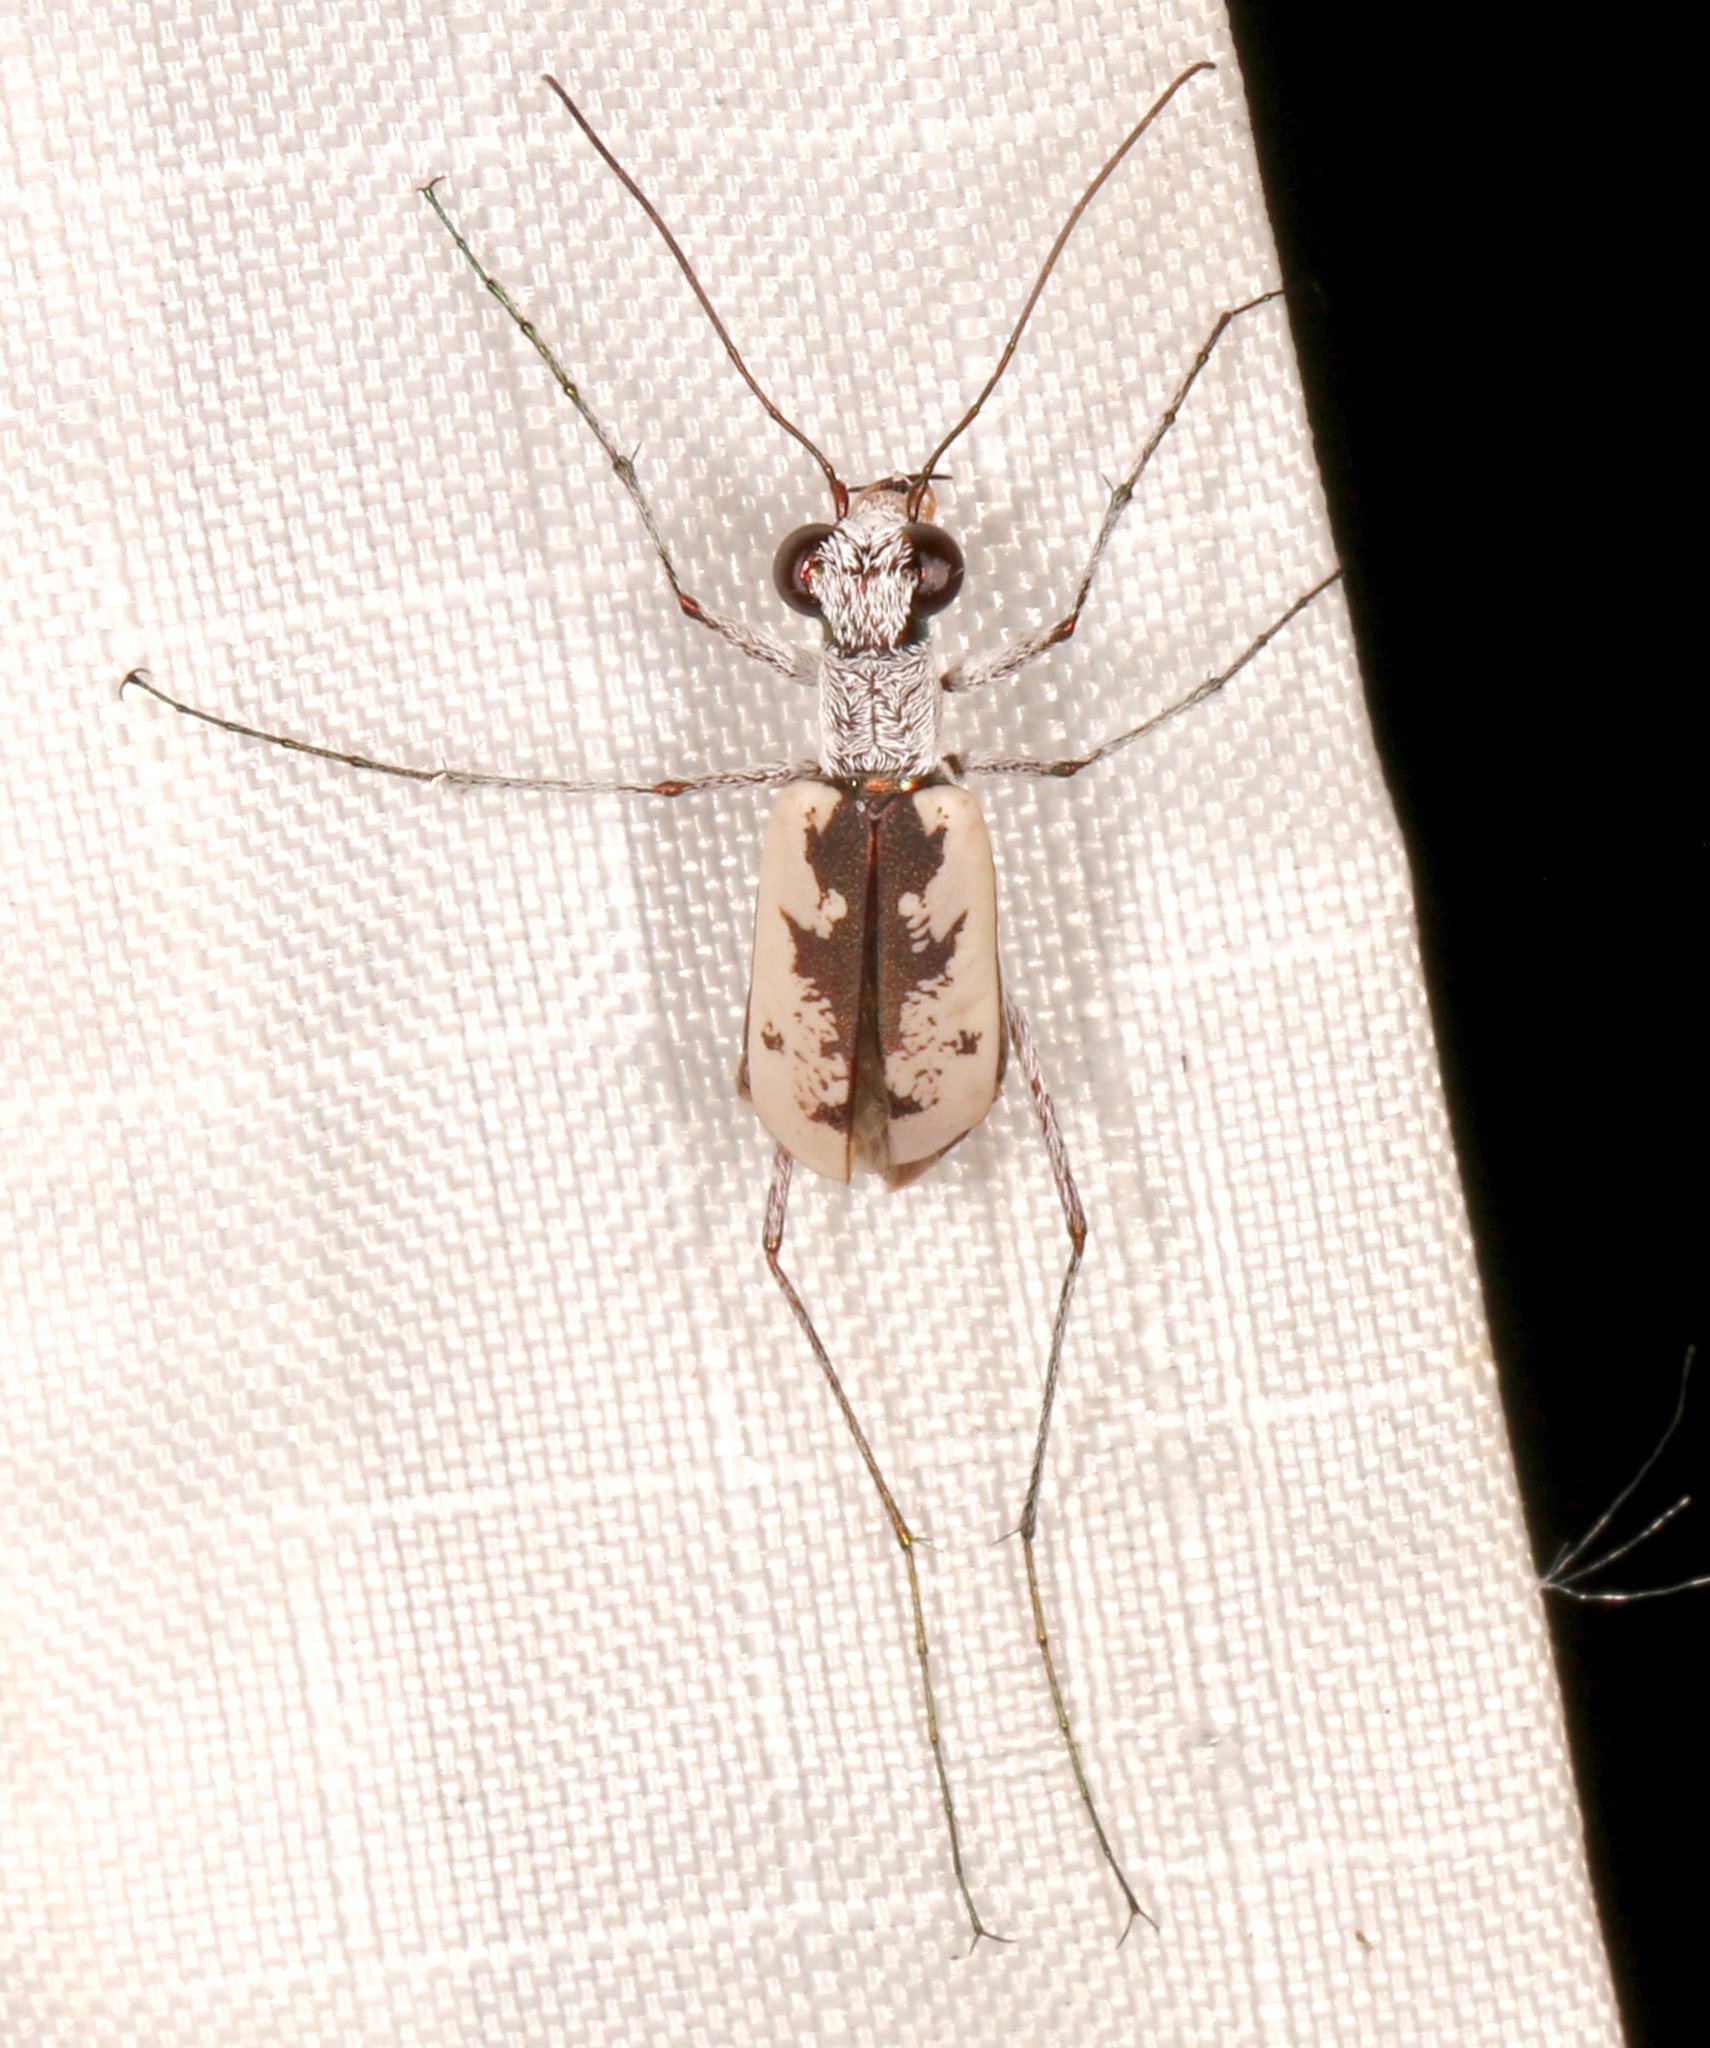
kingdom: Animalia
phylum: Arthropoda
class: Insecta
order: Coleoptera
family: Carabidae
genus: Ellipsoptera
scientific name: Ellipsoptera hirtilabris
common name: Moustached tiger beetle
